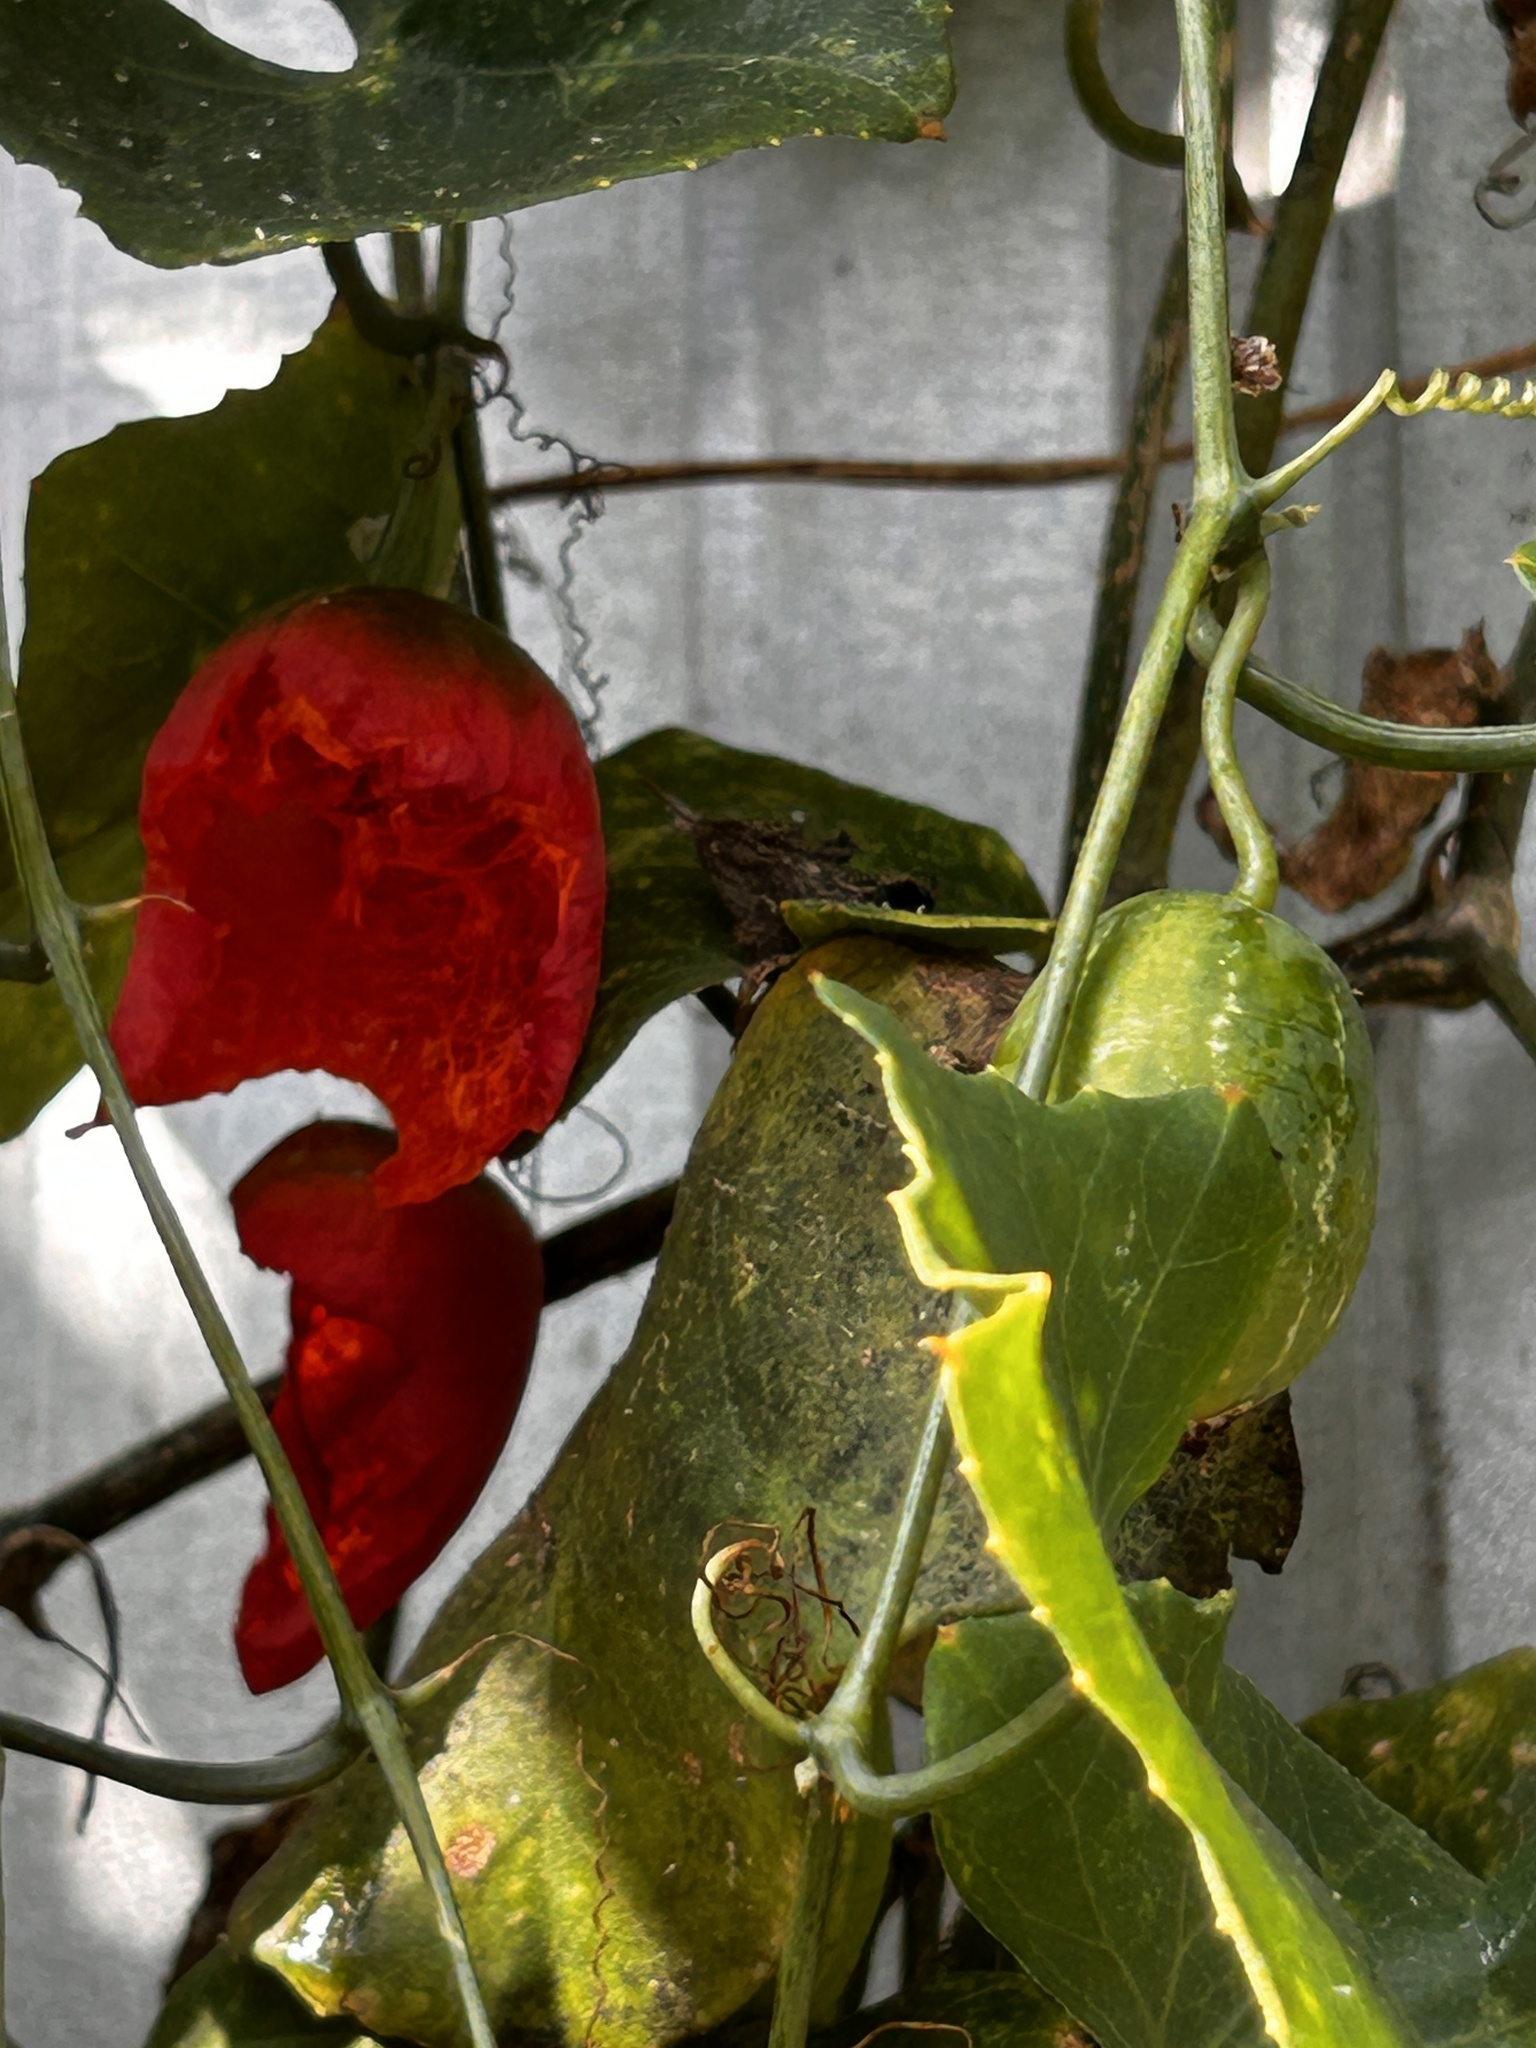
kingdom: Plantae
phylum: Tracheophyta
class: Magnoliopsida
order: Cucurbitales
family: Cucurbitaceae
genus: Coccinia
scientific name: Coccinia grandis
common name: Ivy gourd
